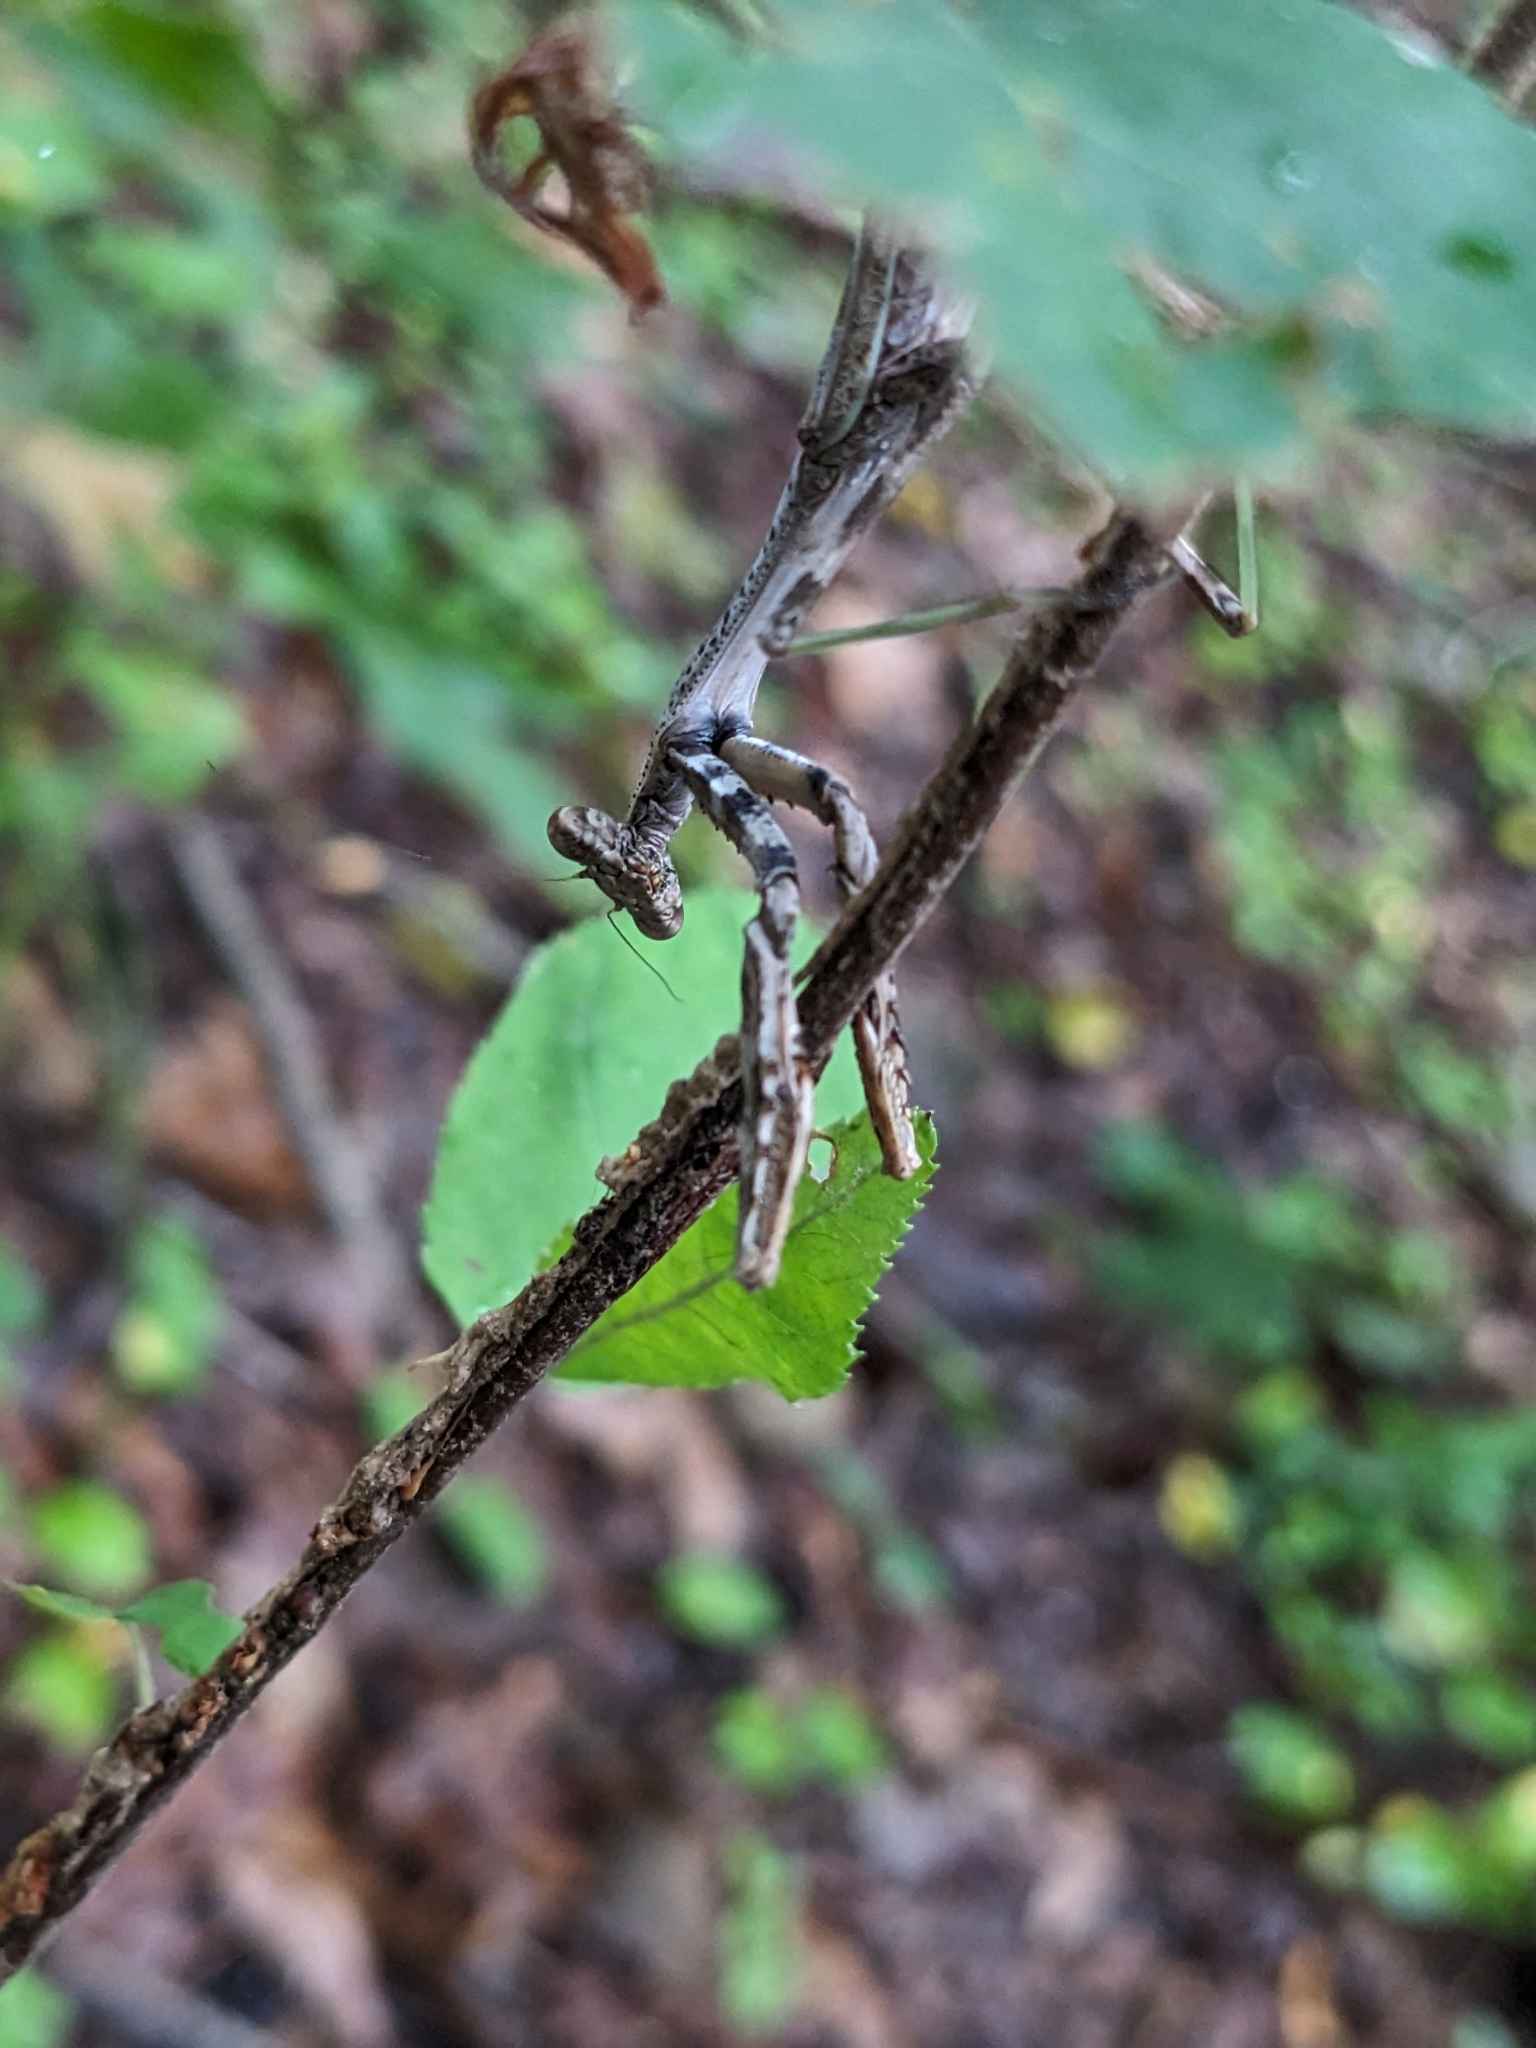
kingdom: Animalia
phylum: Arthropoda
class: Insecta
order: Mantodea
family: Mantidae
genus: Stagmomantis
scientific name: Stagmomantis carolina
